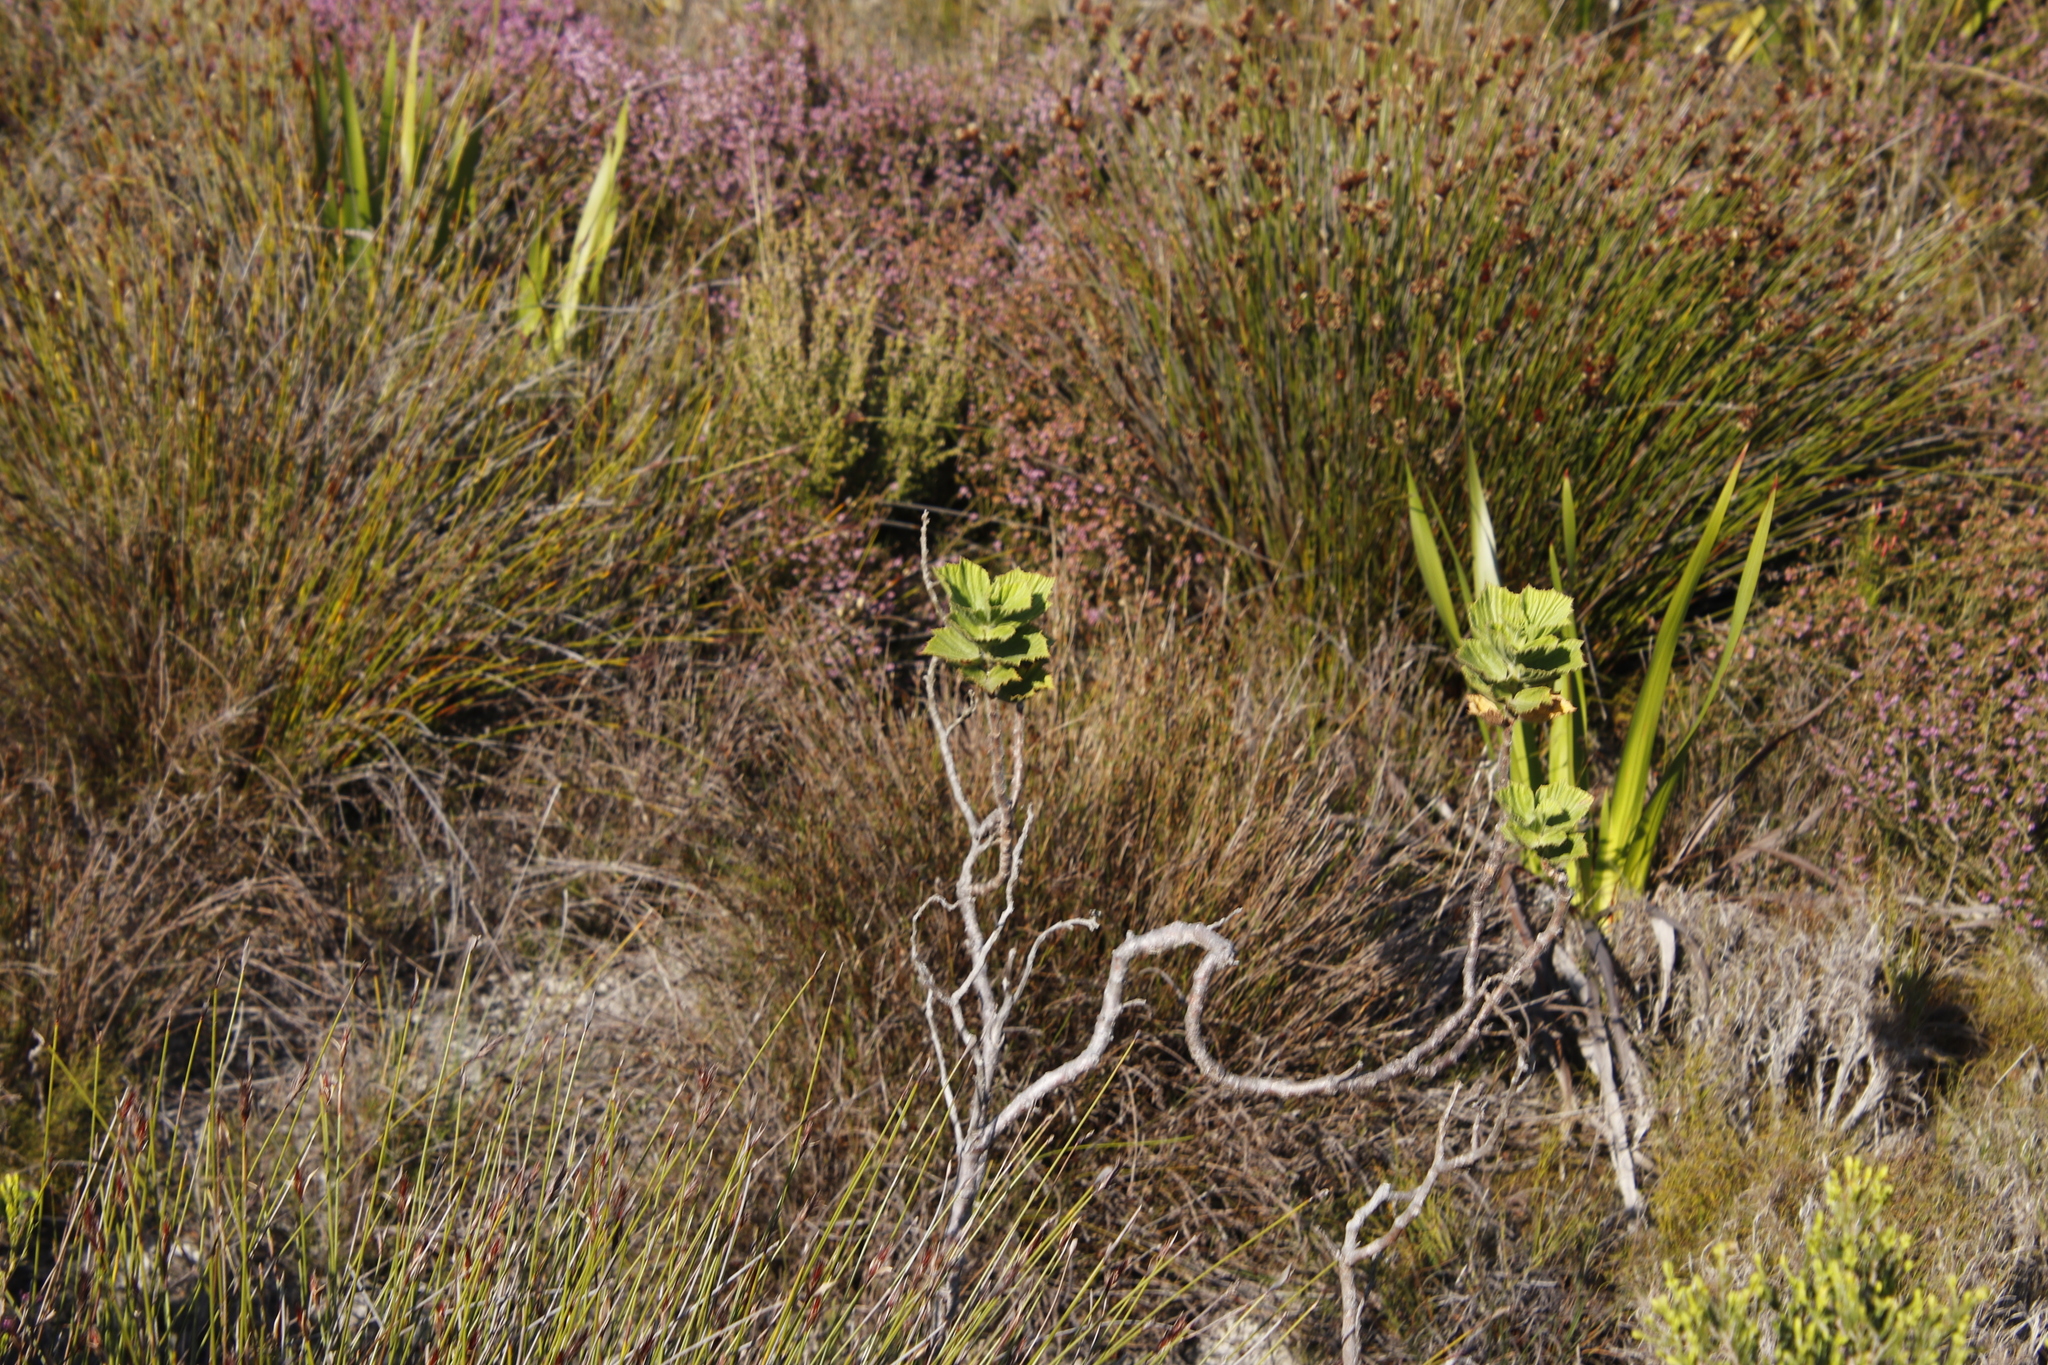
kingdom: Plantae
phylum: Tracheophyta
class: Magnoliopsida
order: Geraniales
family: Geraniaceae
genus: Pelargonium
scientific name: Pelargonium cucullatum
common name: Tree pelargonium
